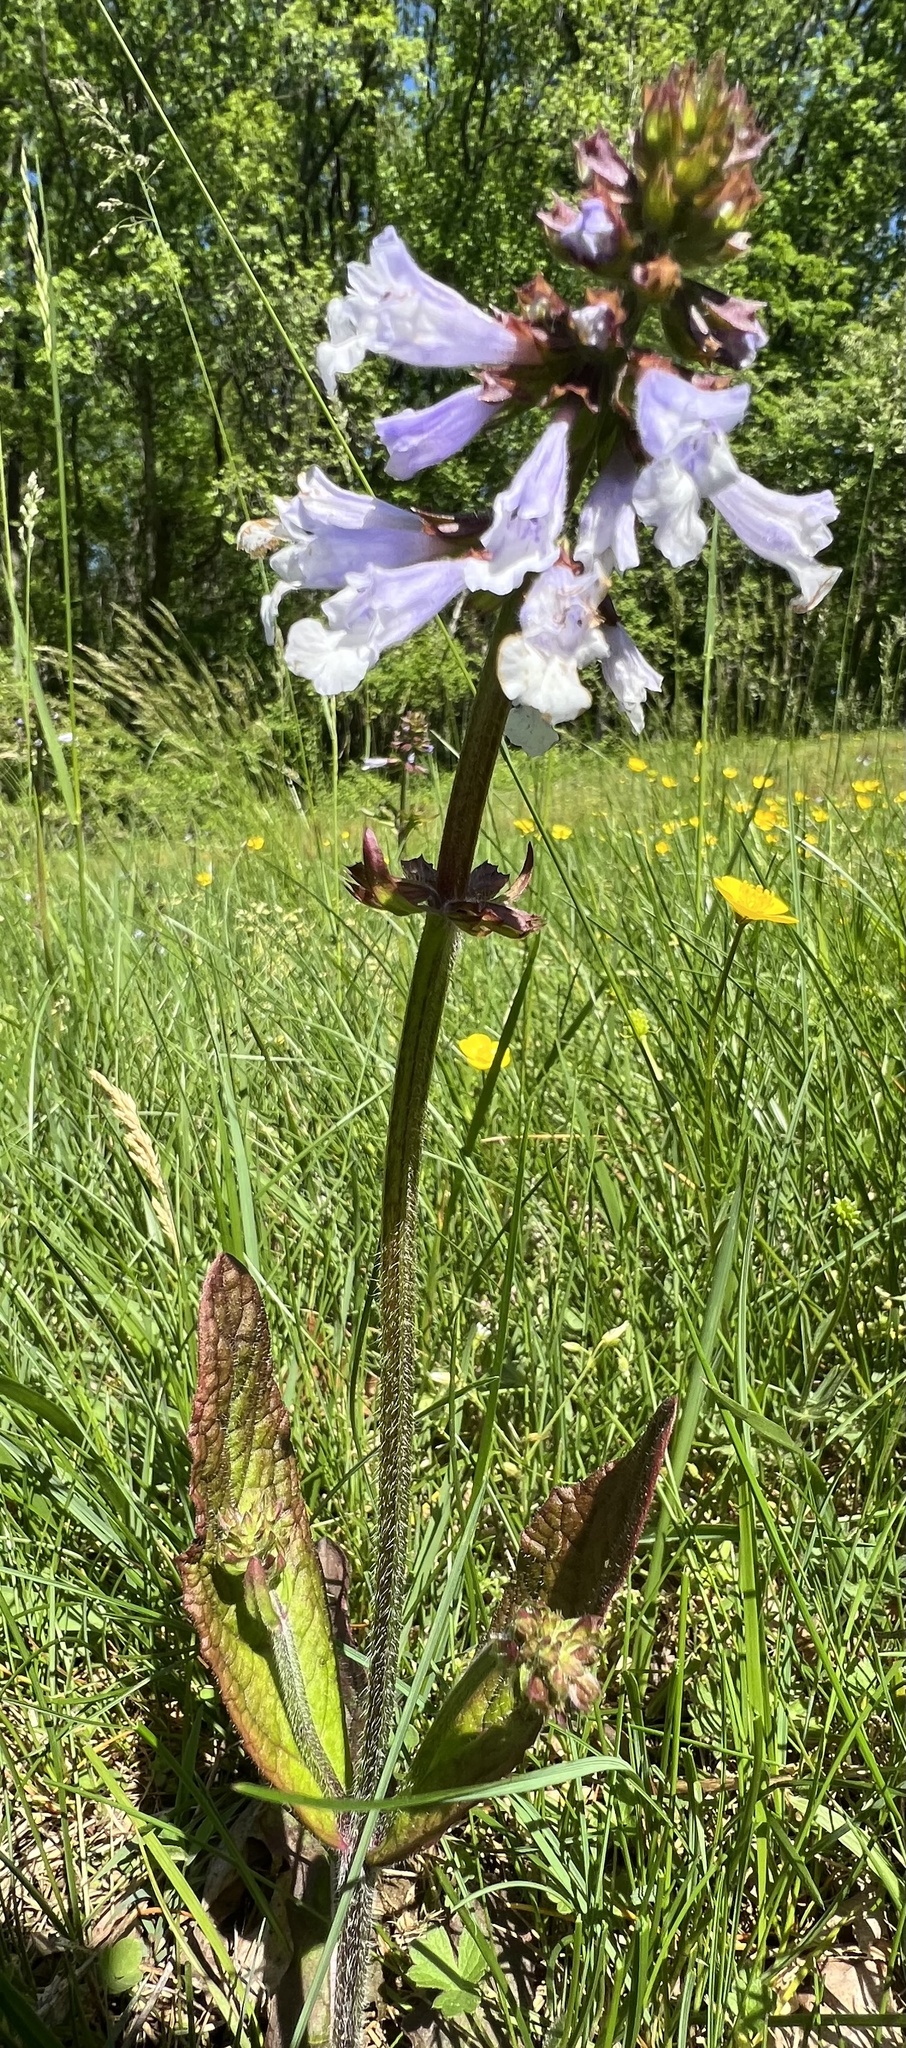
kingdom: Plantae
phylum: Tracheophyta
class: Magnoliopsida
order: Lamiales
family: Lamiaceae
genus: Salvia
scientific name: Salvia lyrata
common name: Cancerweed
